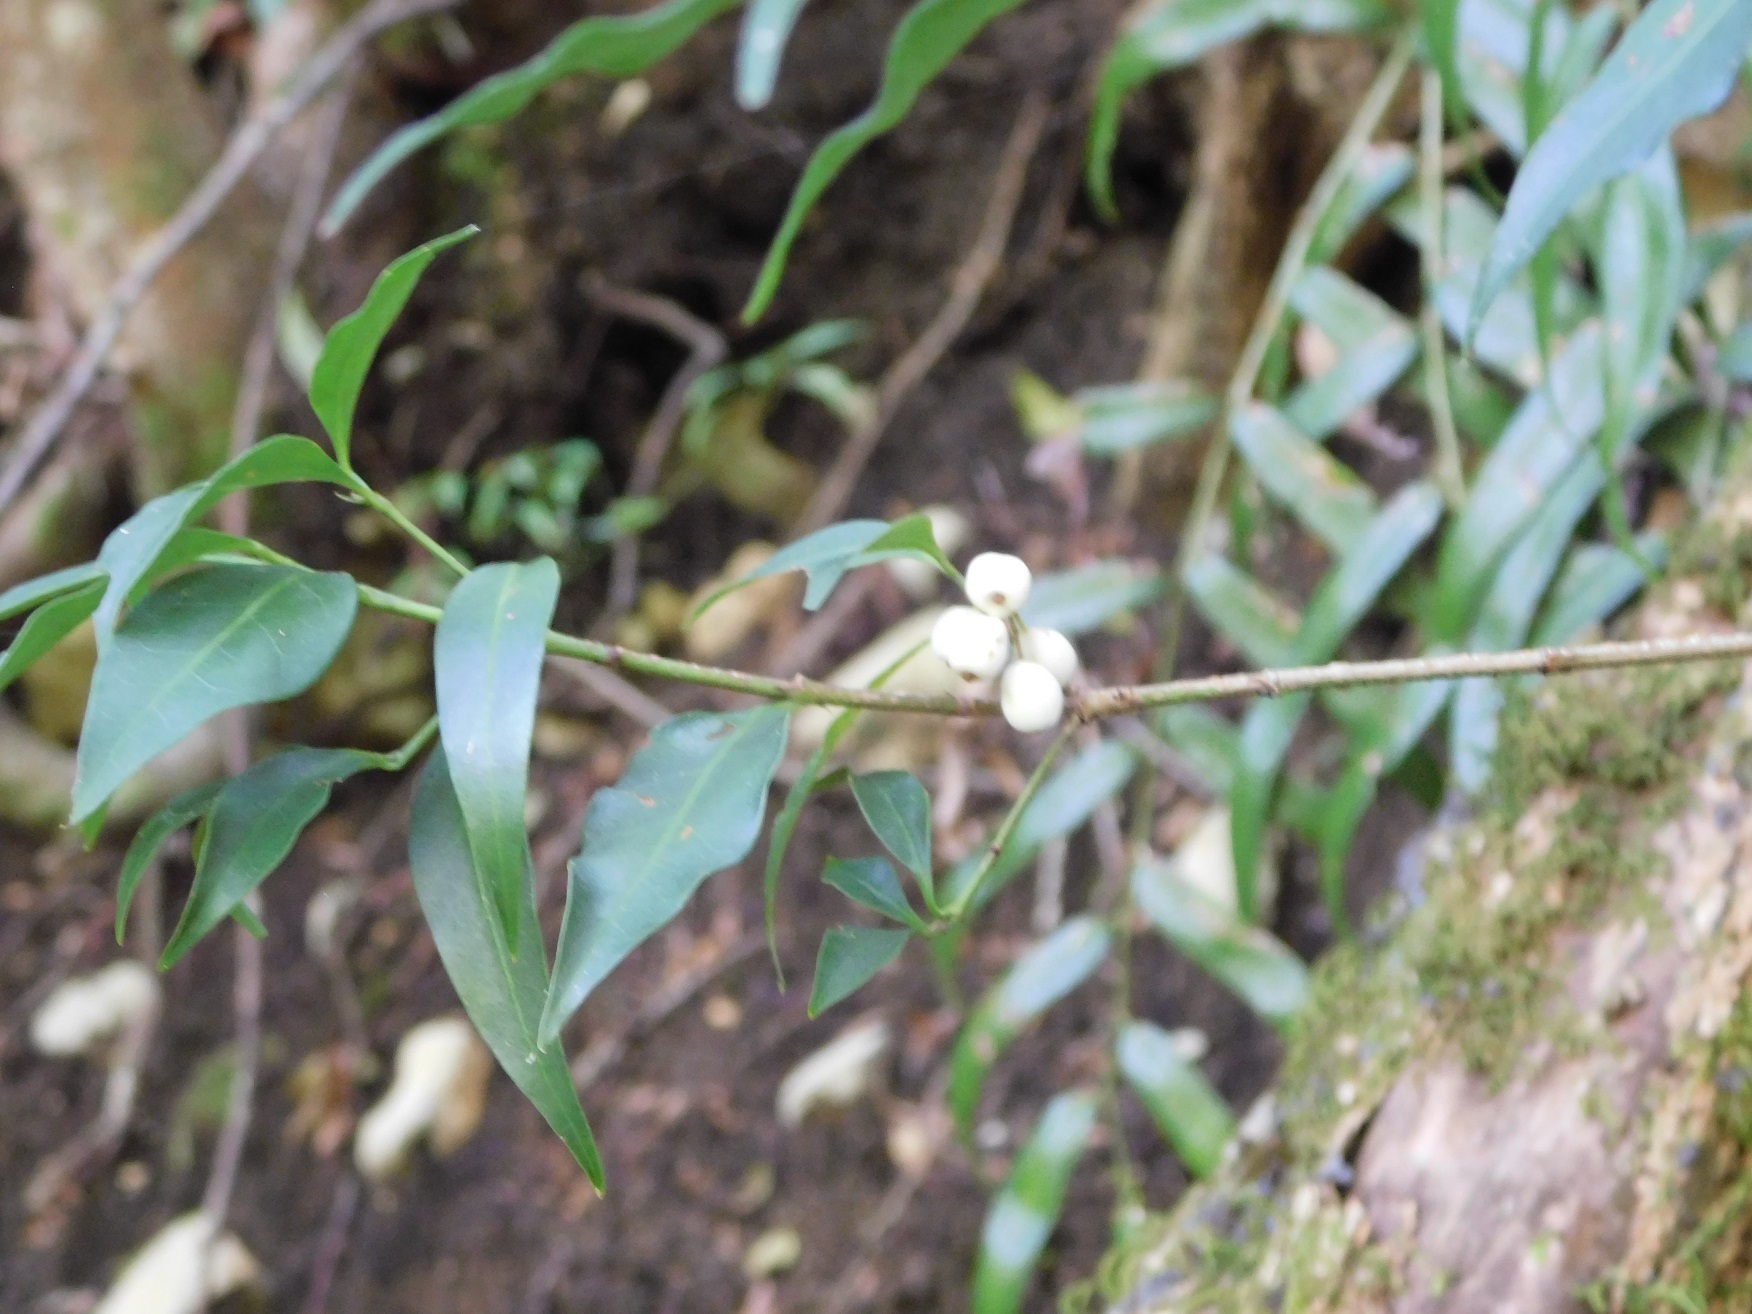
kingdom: Plantae
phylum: Tracheophyta
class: Magnoliopsida
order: Gentianales
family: Rubiaceae
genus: Chiococca
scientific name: Chiococca alba
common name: Snowberry
